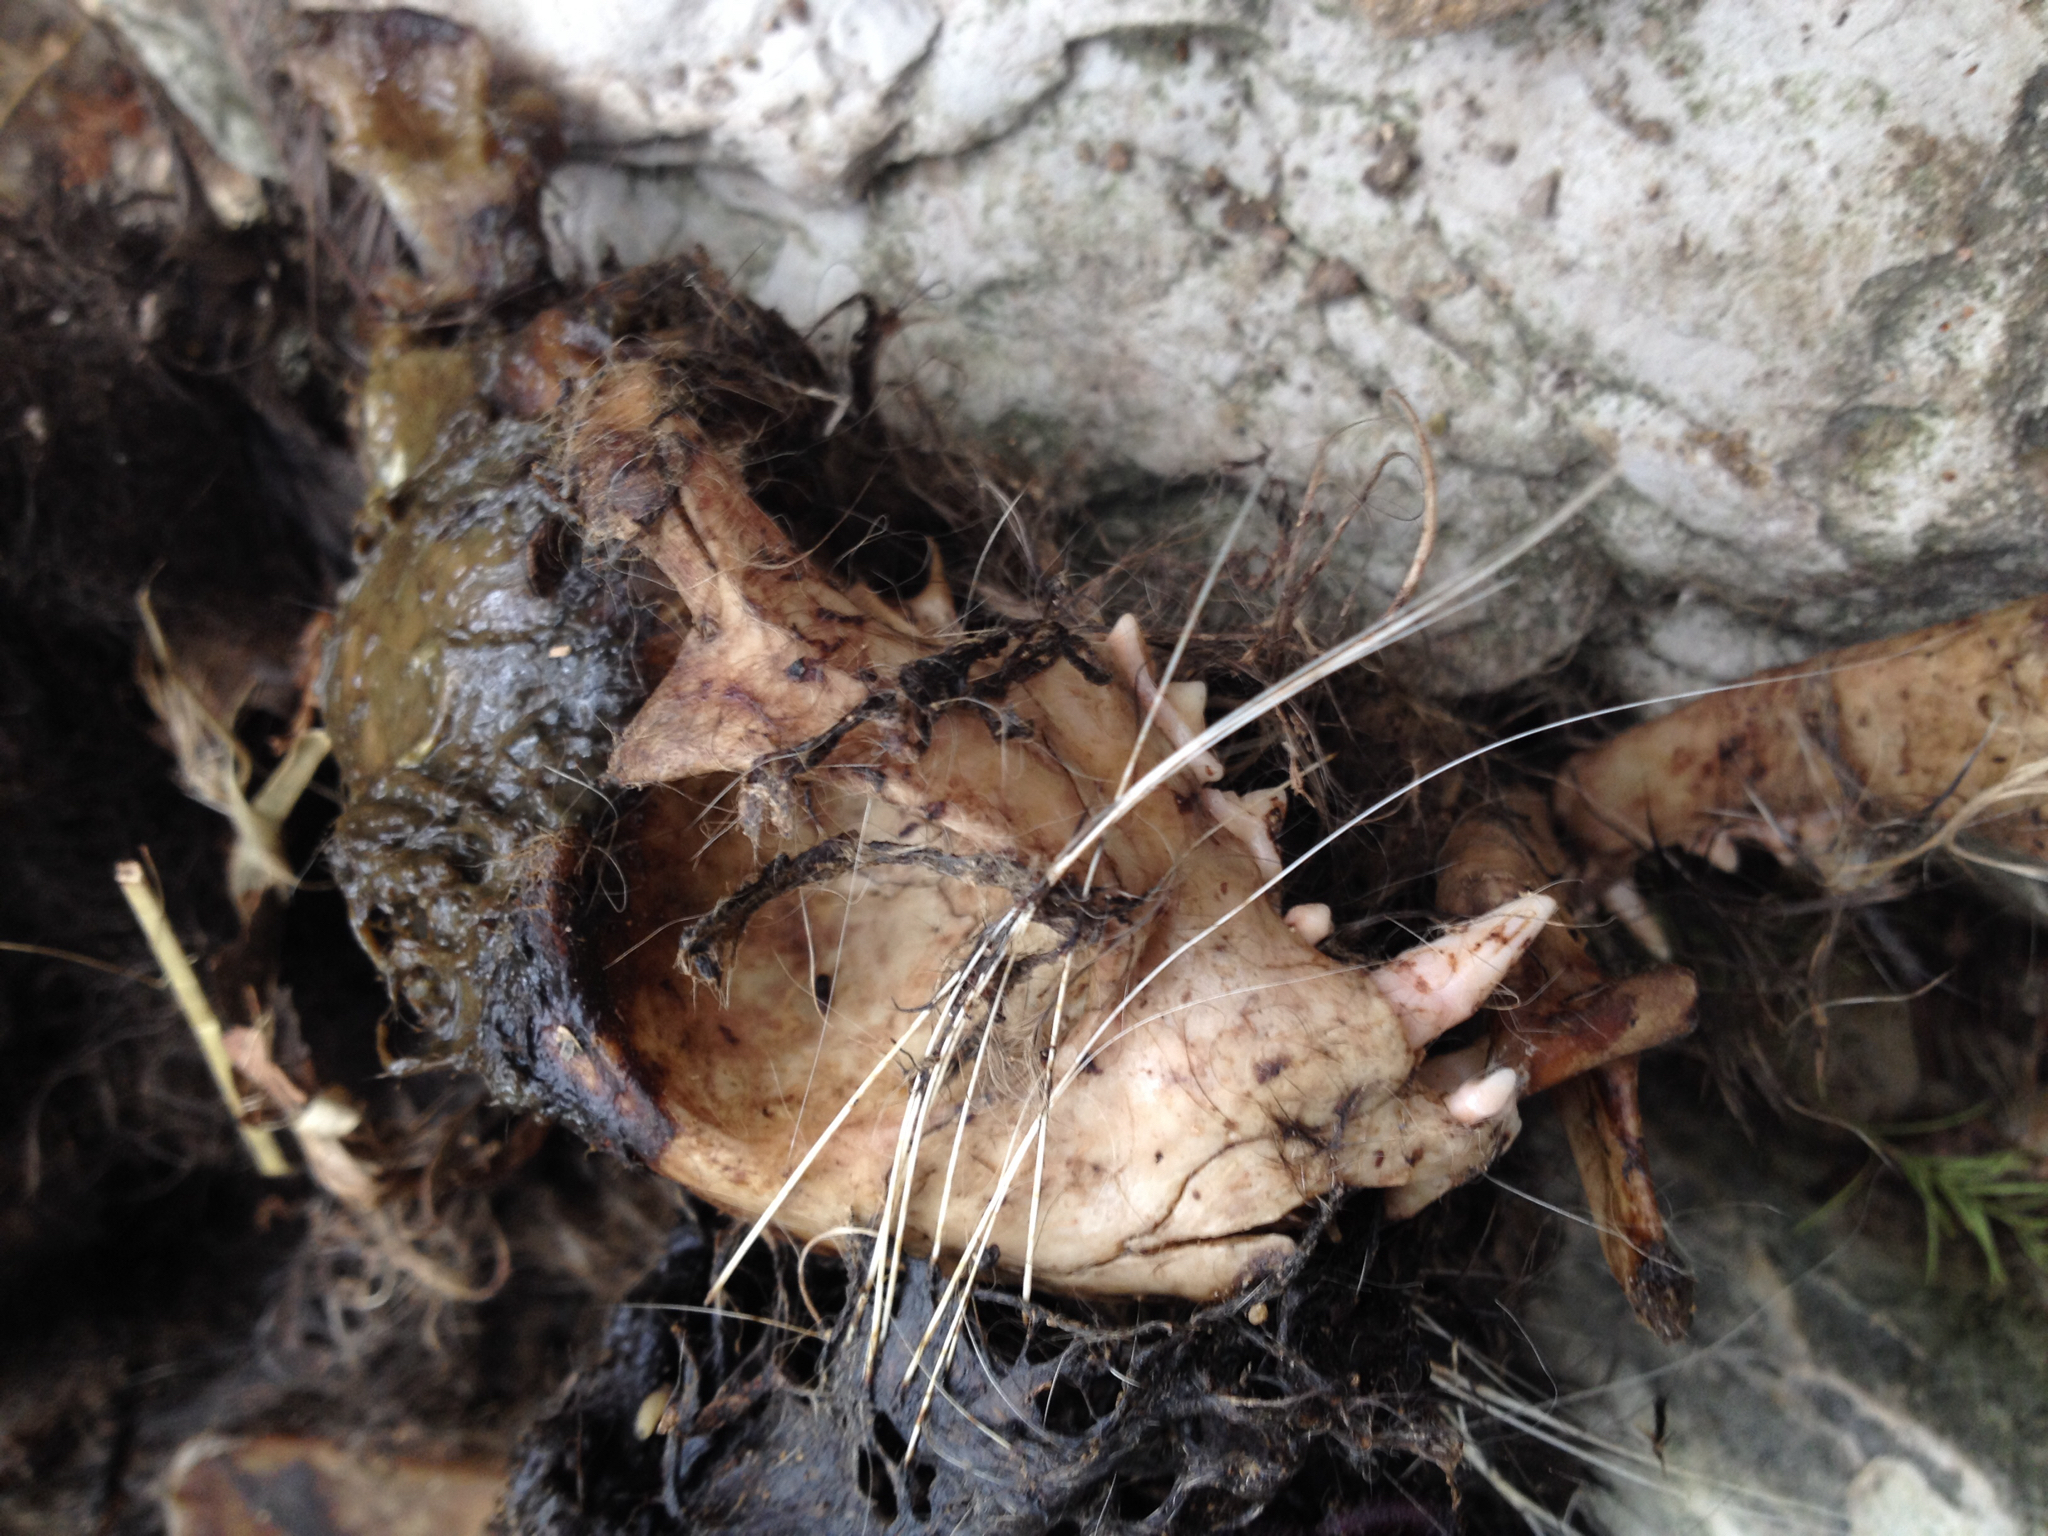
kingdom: Animalia
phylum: Chordata
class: Mammalia
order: Carnivora
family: Felidae
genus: Felis
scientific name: Felis catus
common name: Domestic cat
